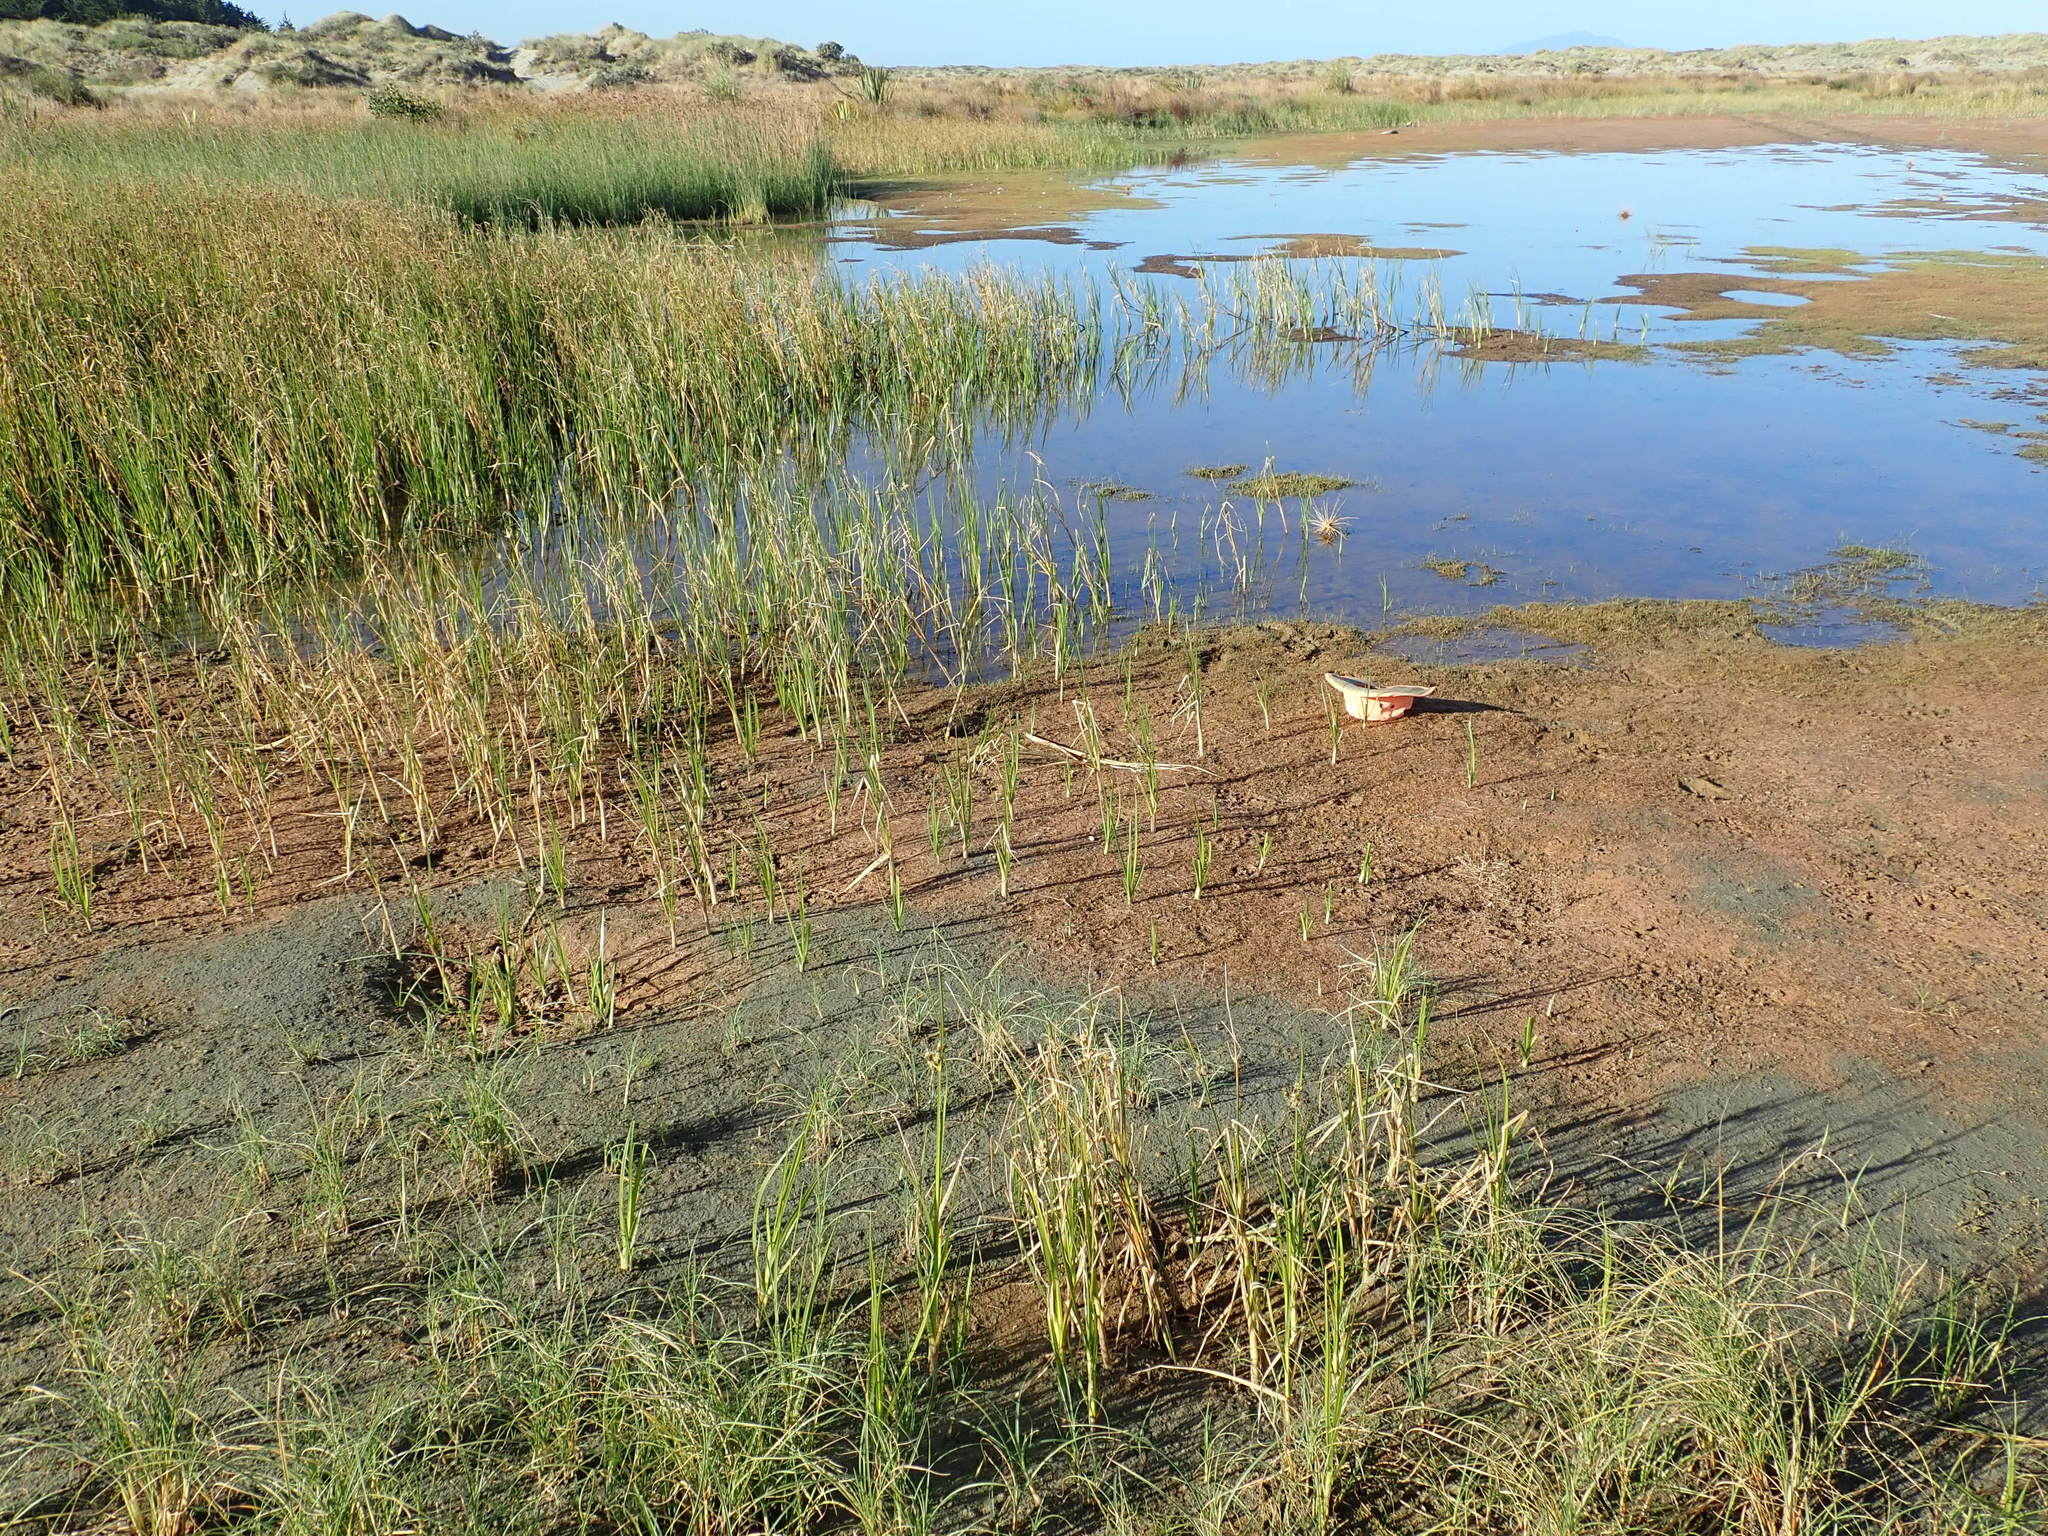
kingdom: Plantae
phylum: Tracheophyta
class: Magnoliopsida
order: Lamiales
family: Scrophulariaceae
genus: Limosella
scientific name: Limosella australis
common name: Welsh mudwort
